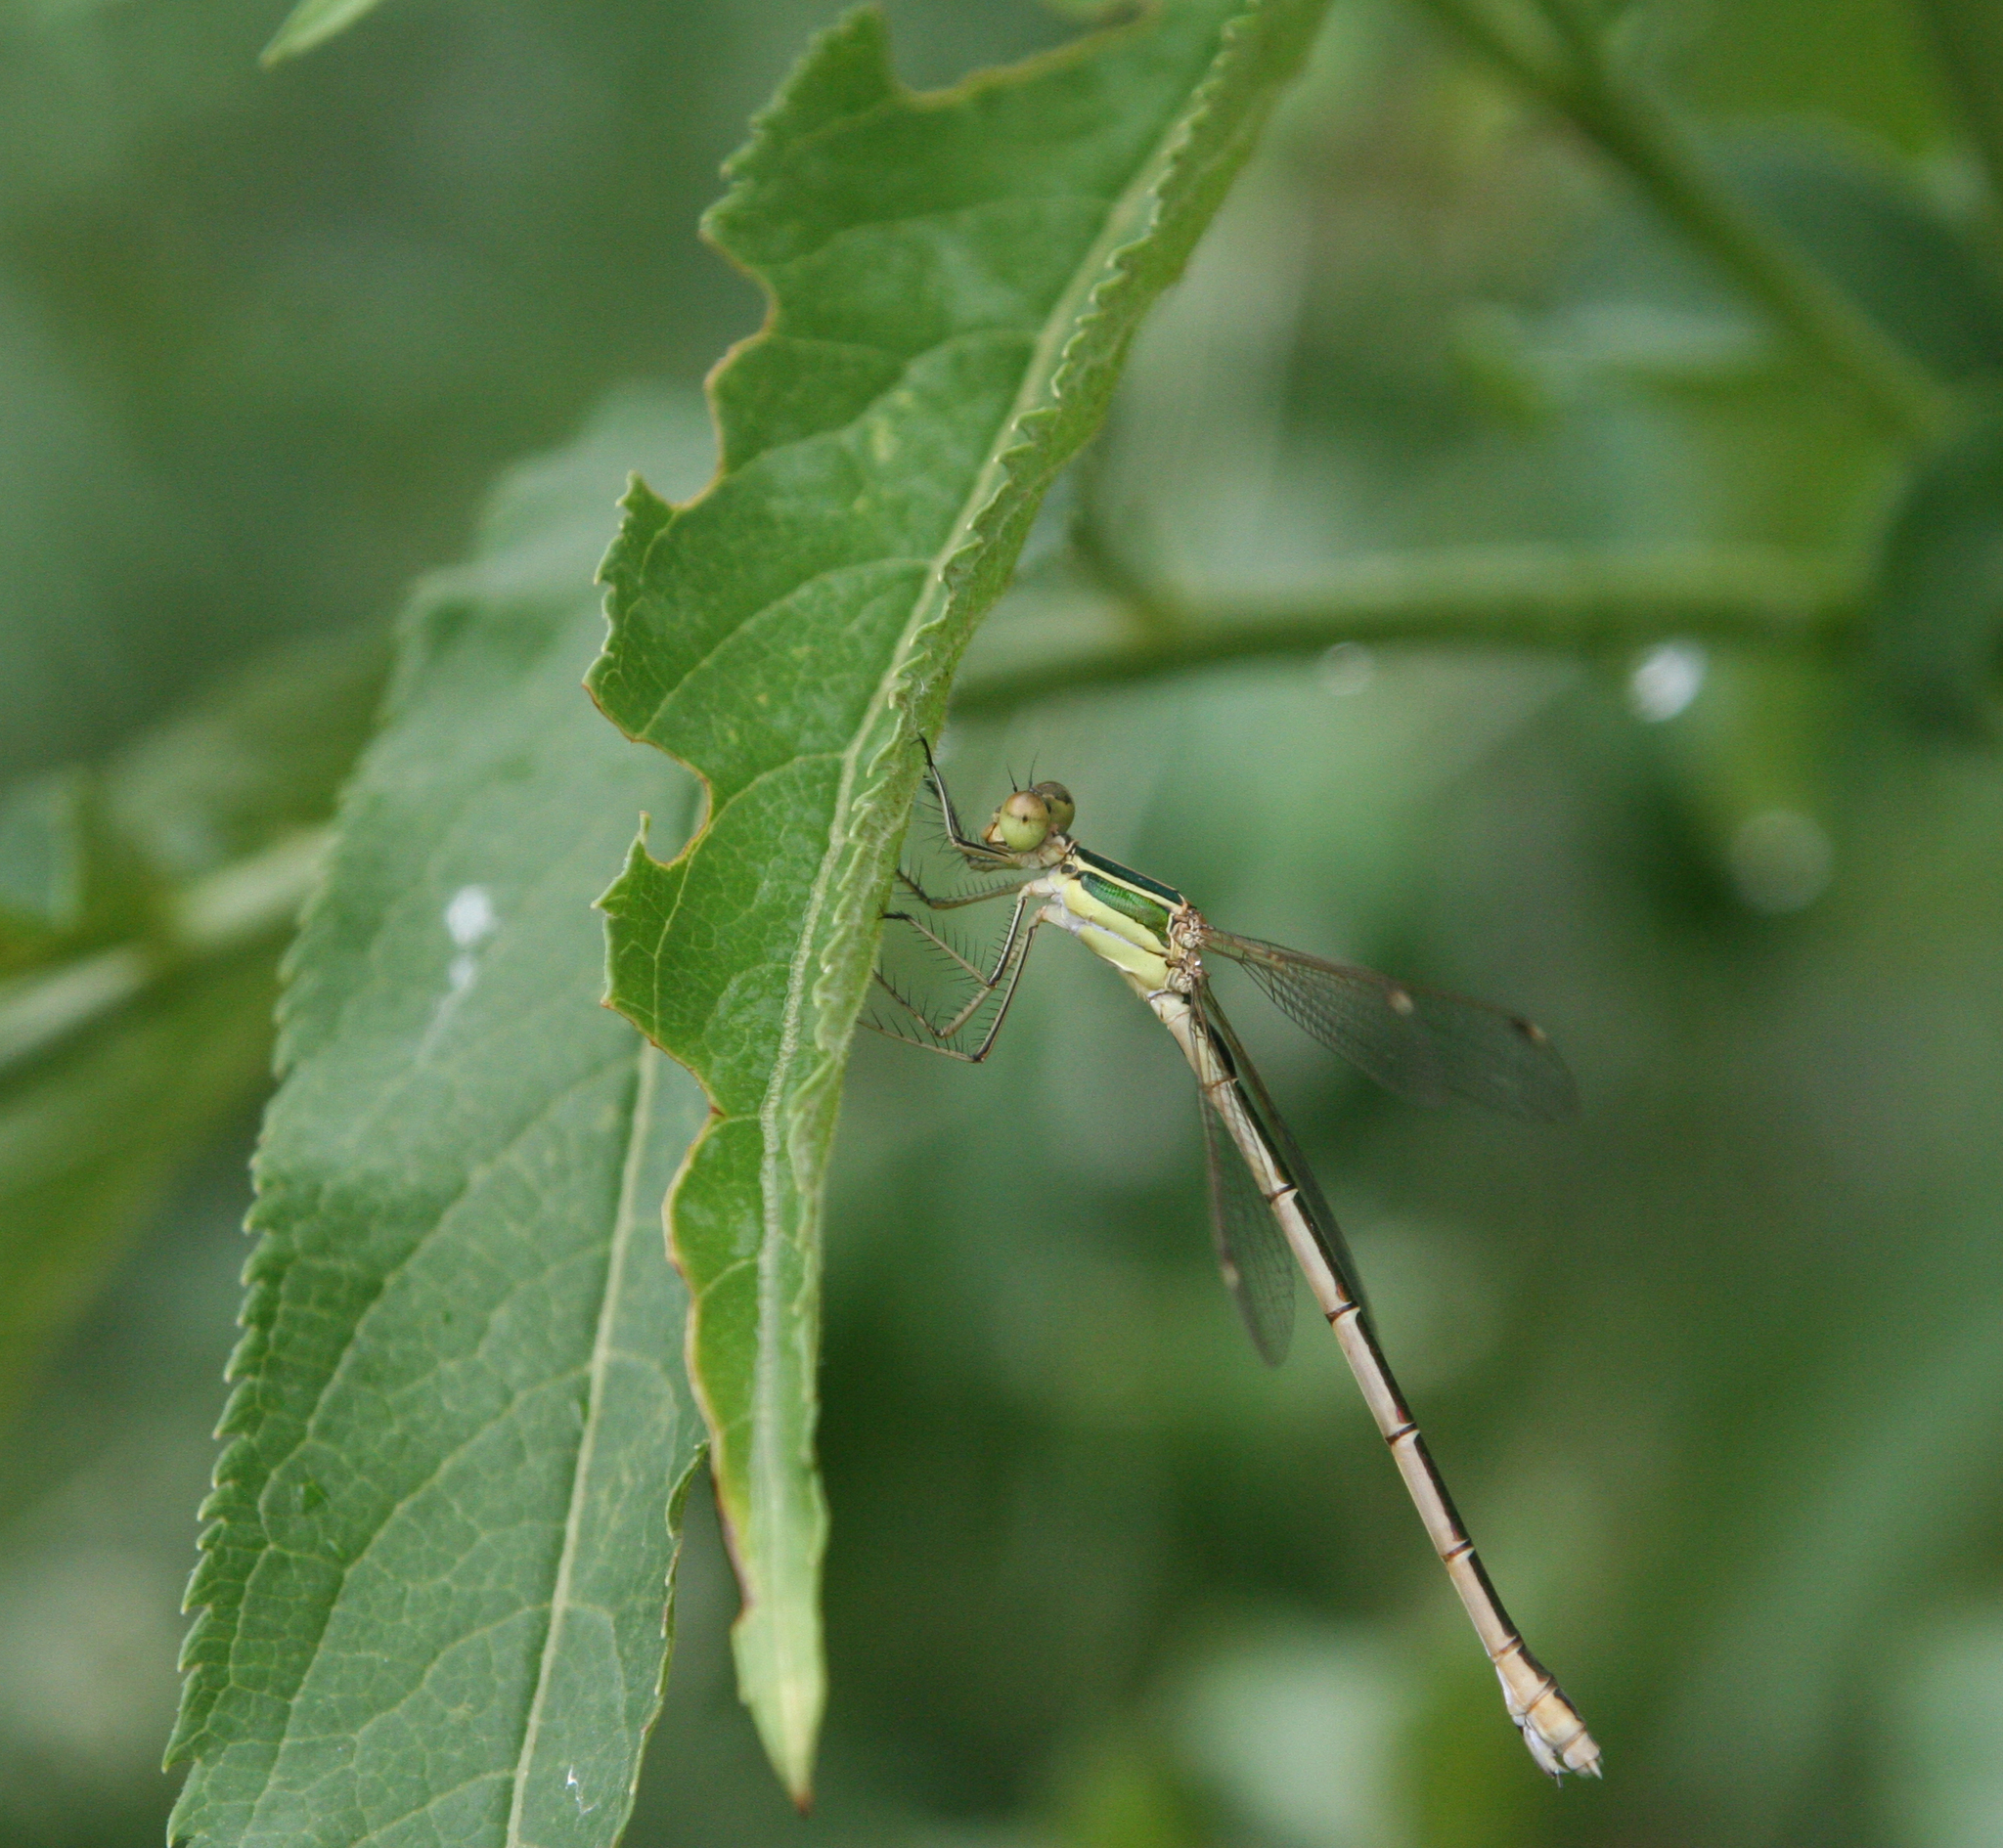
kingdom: Animalia
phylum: Arthropoda
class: Insecta
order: Odonata
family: Lestidae
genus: Lestes
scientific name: Lestes barbarus
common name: Migrant spreadwing
